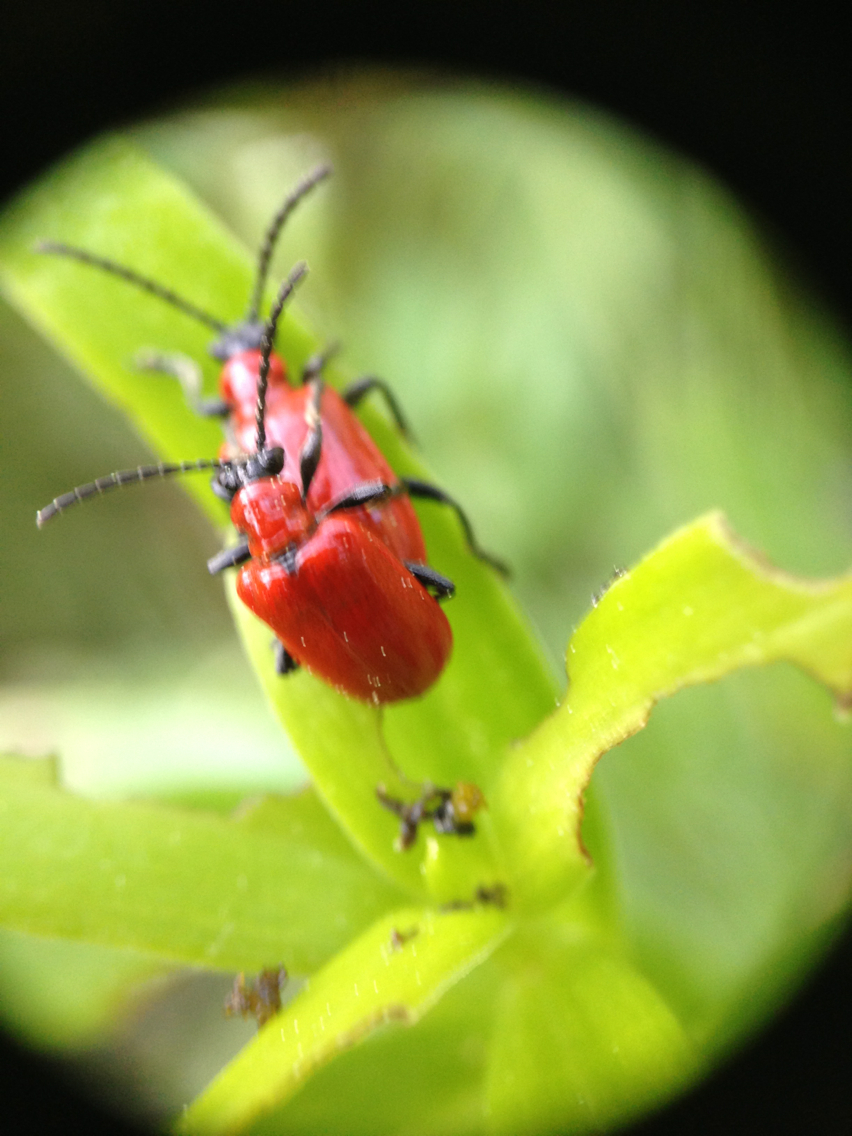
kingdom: Animalia
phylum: Arthropoda
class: Insecta
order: Coleoptera
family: Chrysomelidae
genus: Lilioceris
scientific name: Lilioceris lilii
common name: Lily beetle
